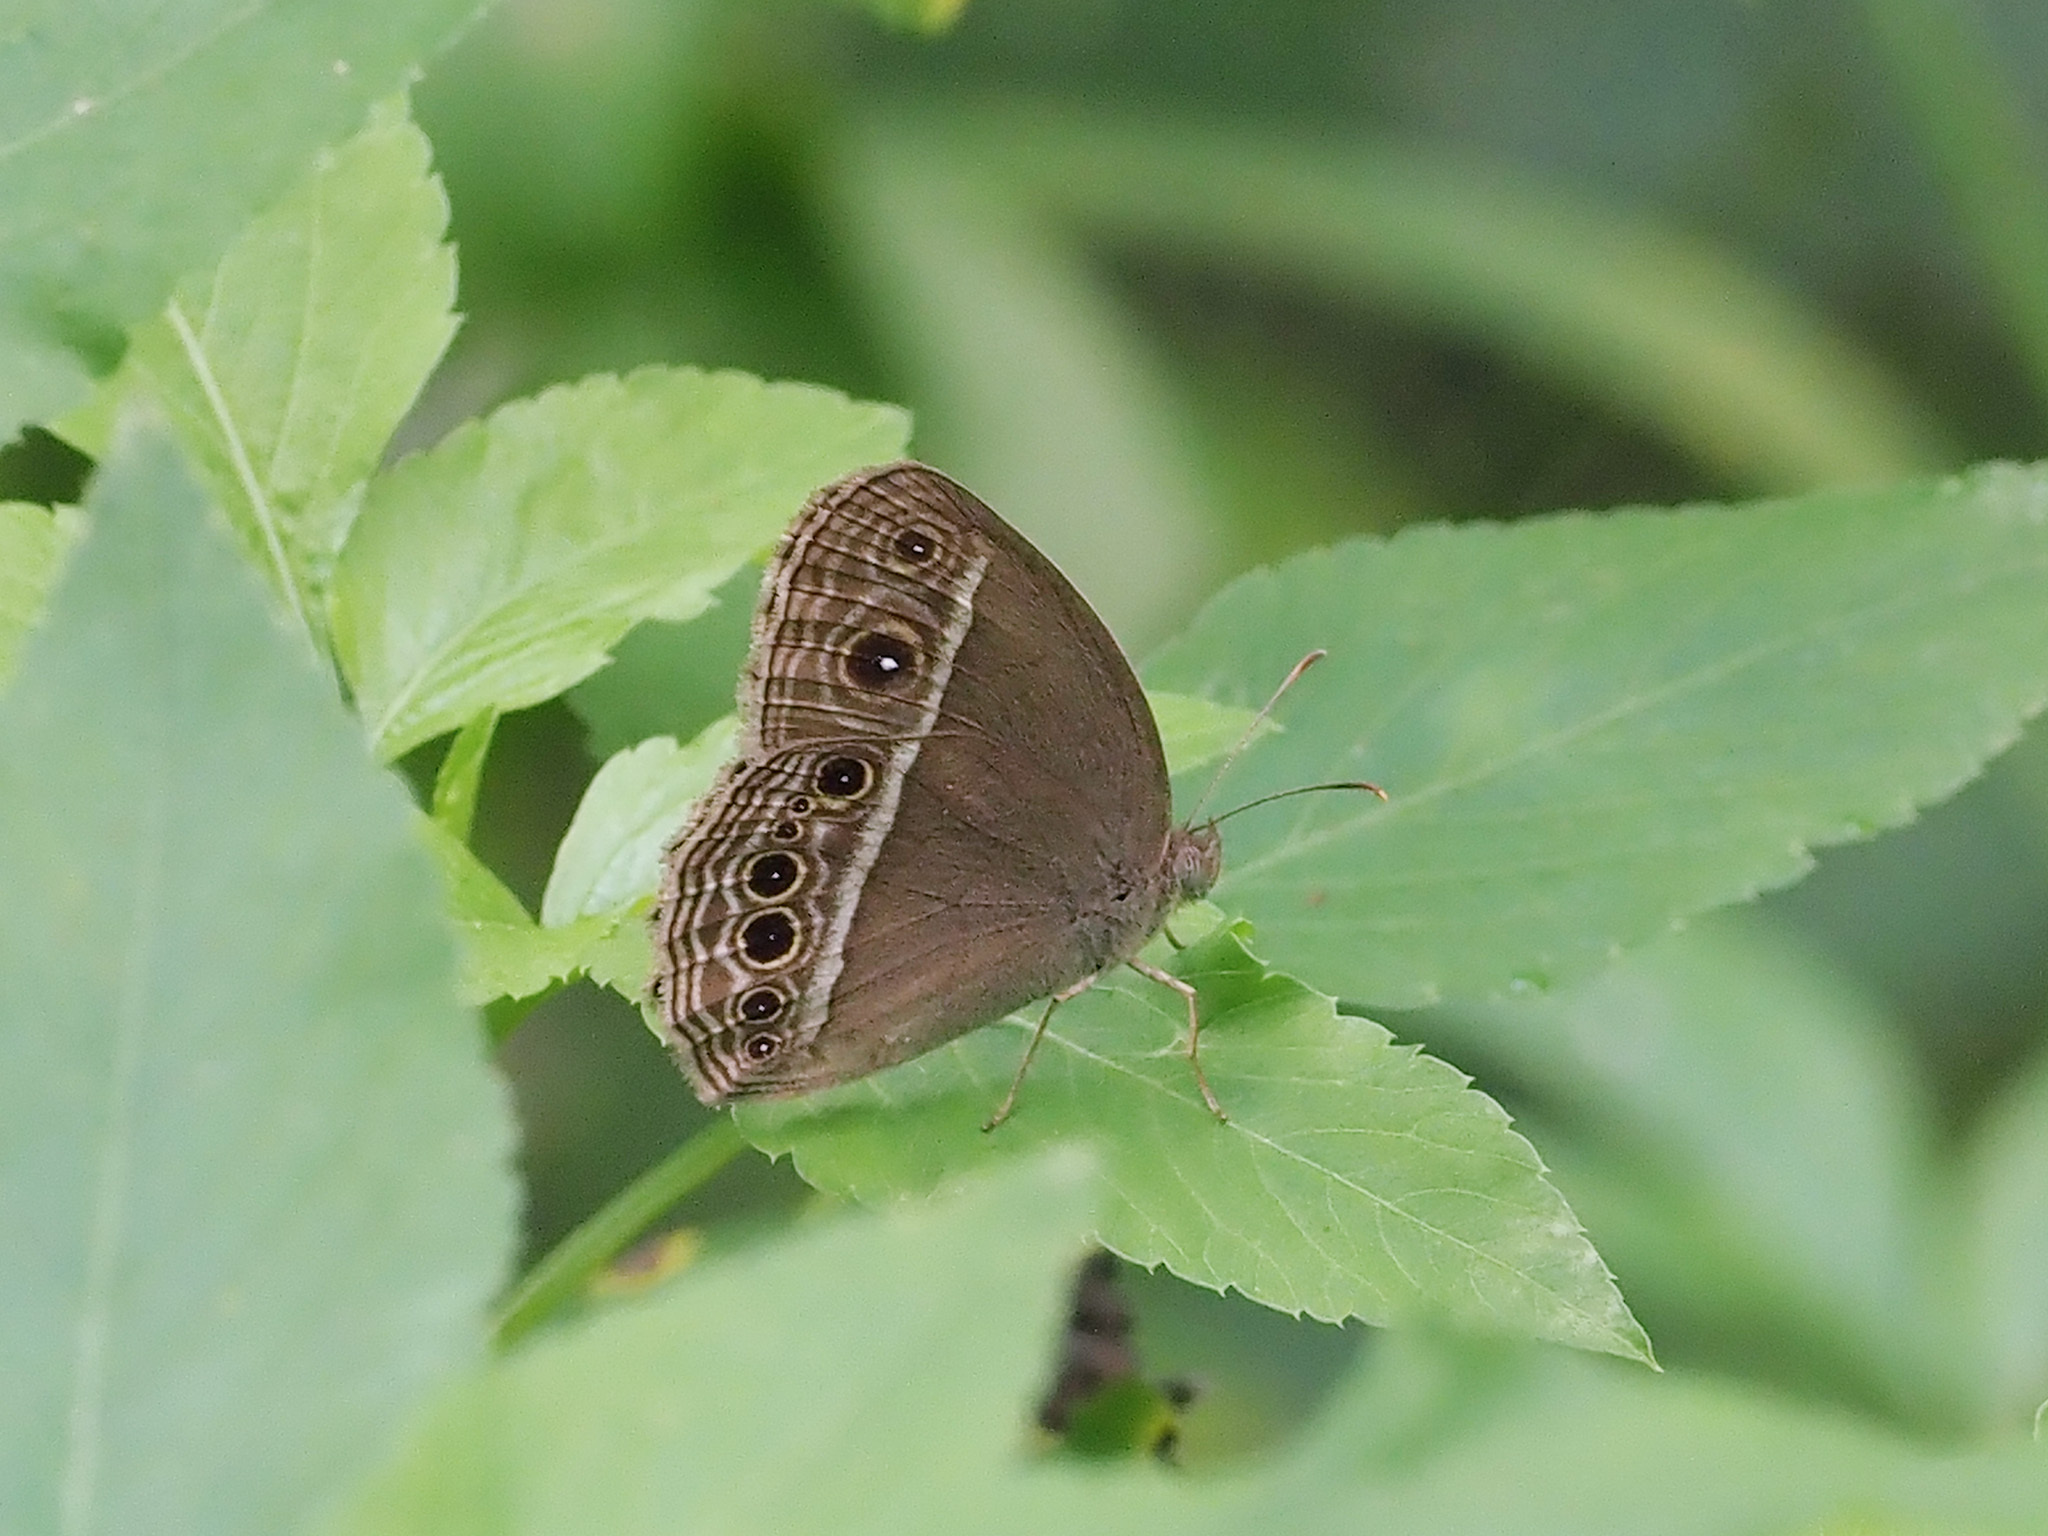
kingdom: Animalia
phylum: Arthropoda
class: Insecta
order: Lepidoptera
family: Nymphalidae
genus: Mycalesis
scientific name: Mycalesis mineus
